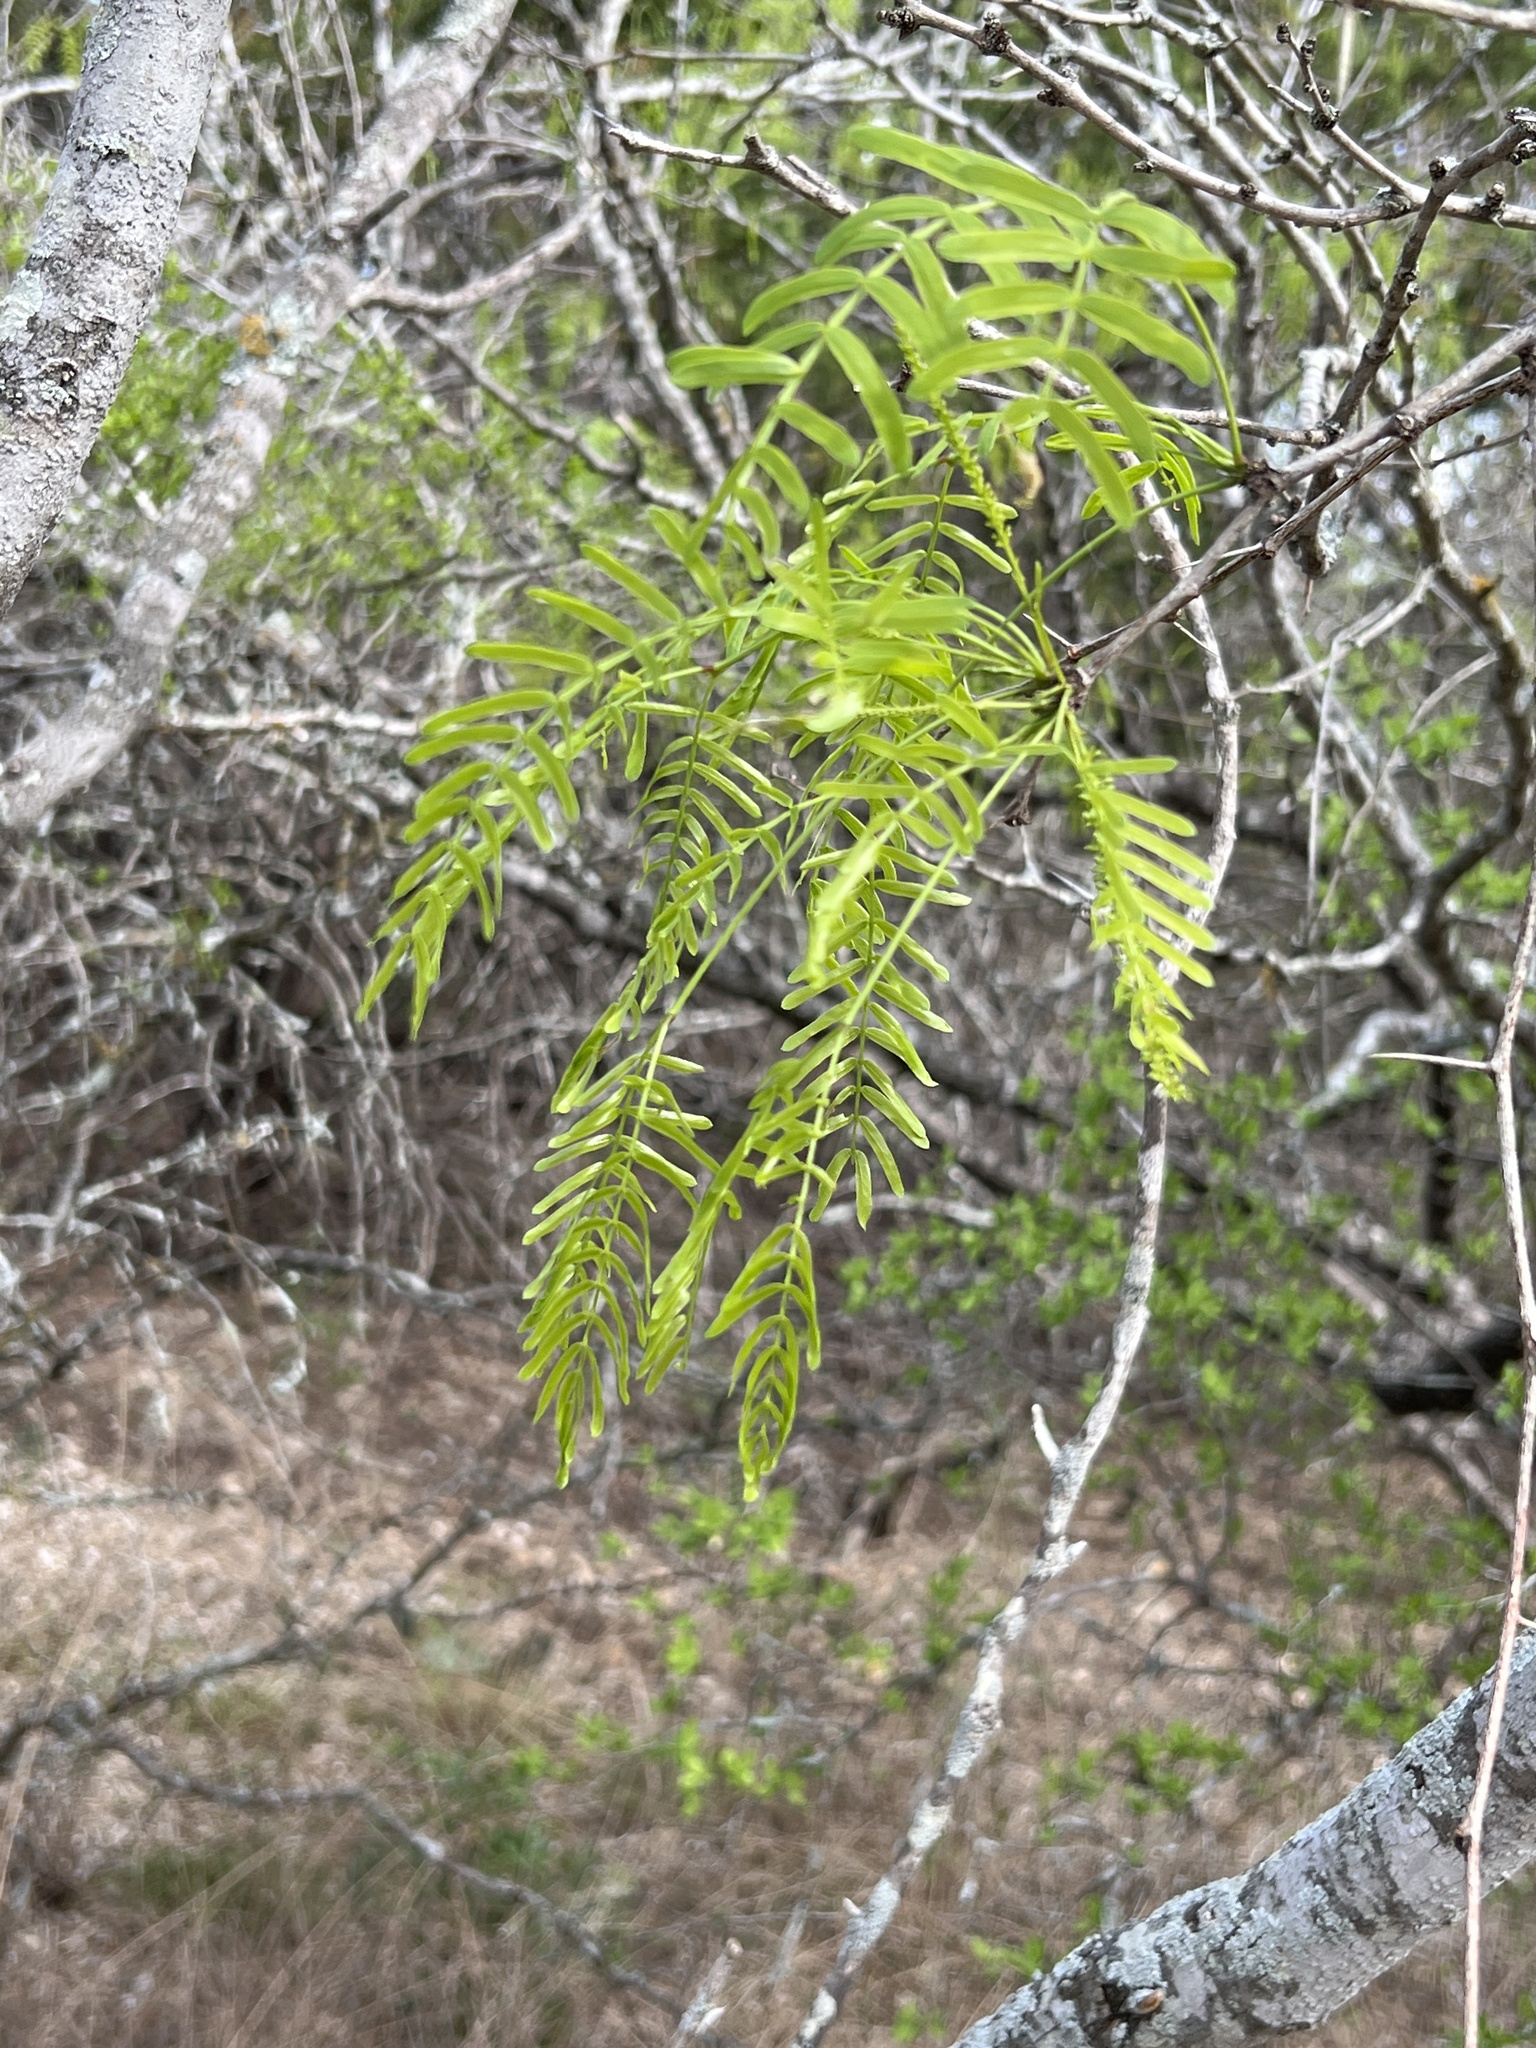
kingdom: Plantae
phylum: Tracheophyta
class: Magnoliopsida
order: Fabales
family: Fabaceae
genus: Prosopis
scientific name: Prosopis glandulosa
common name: Honey mesquite
